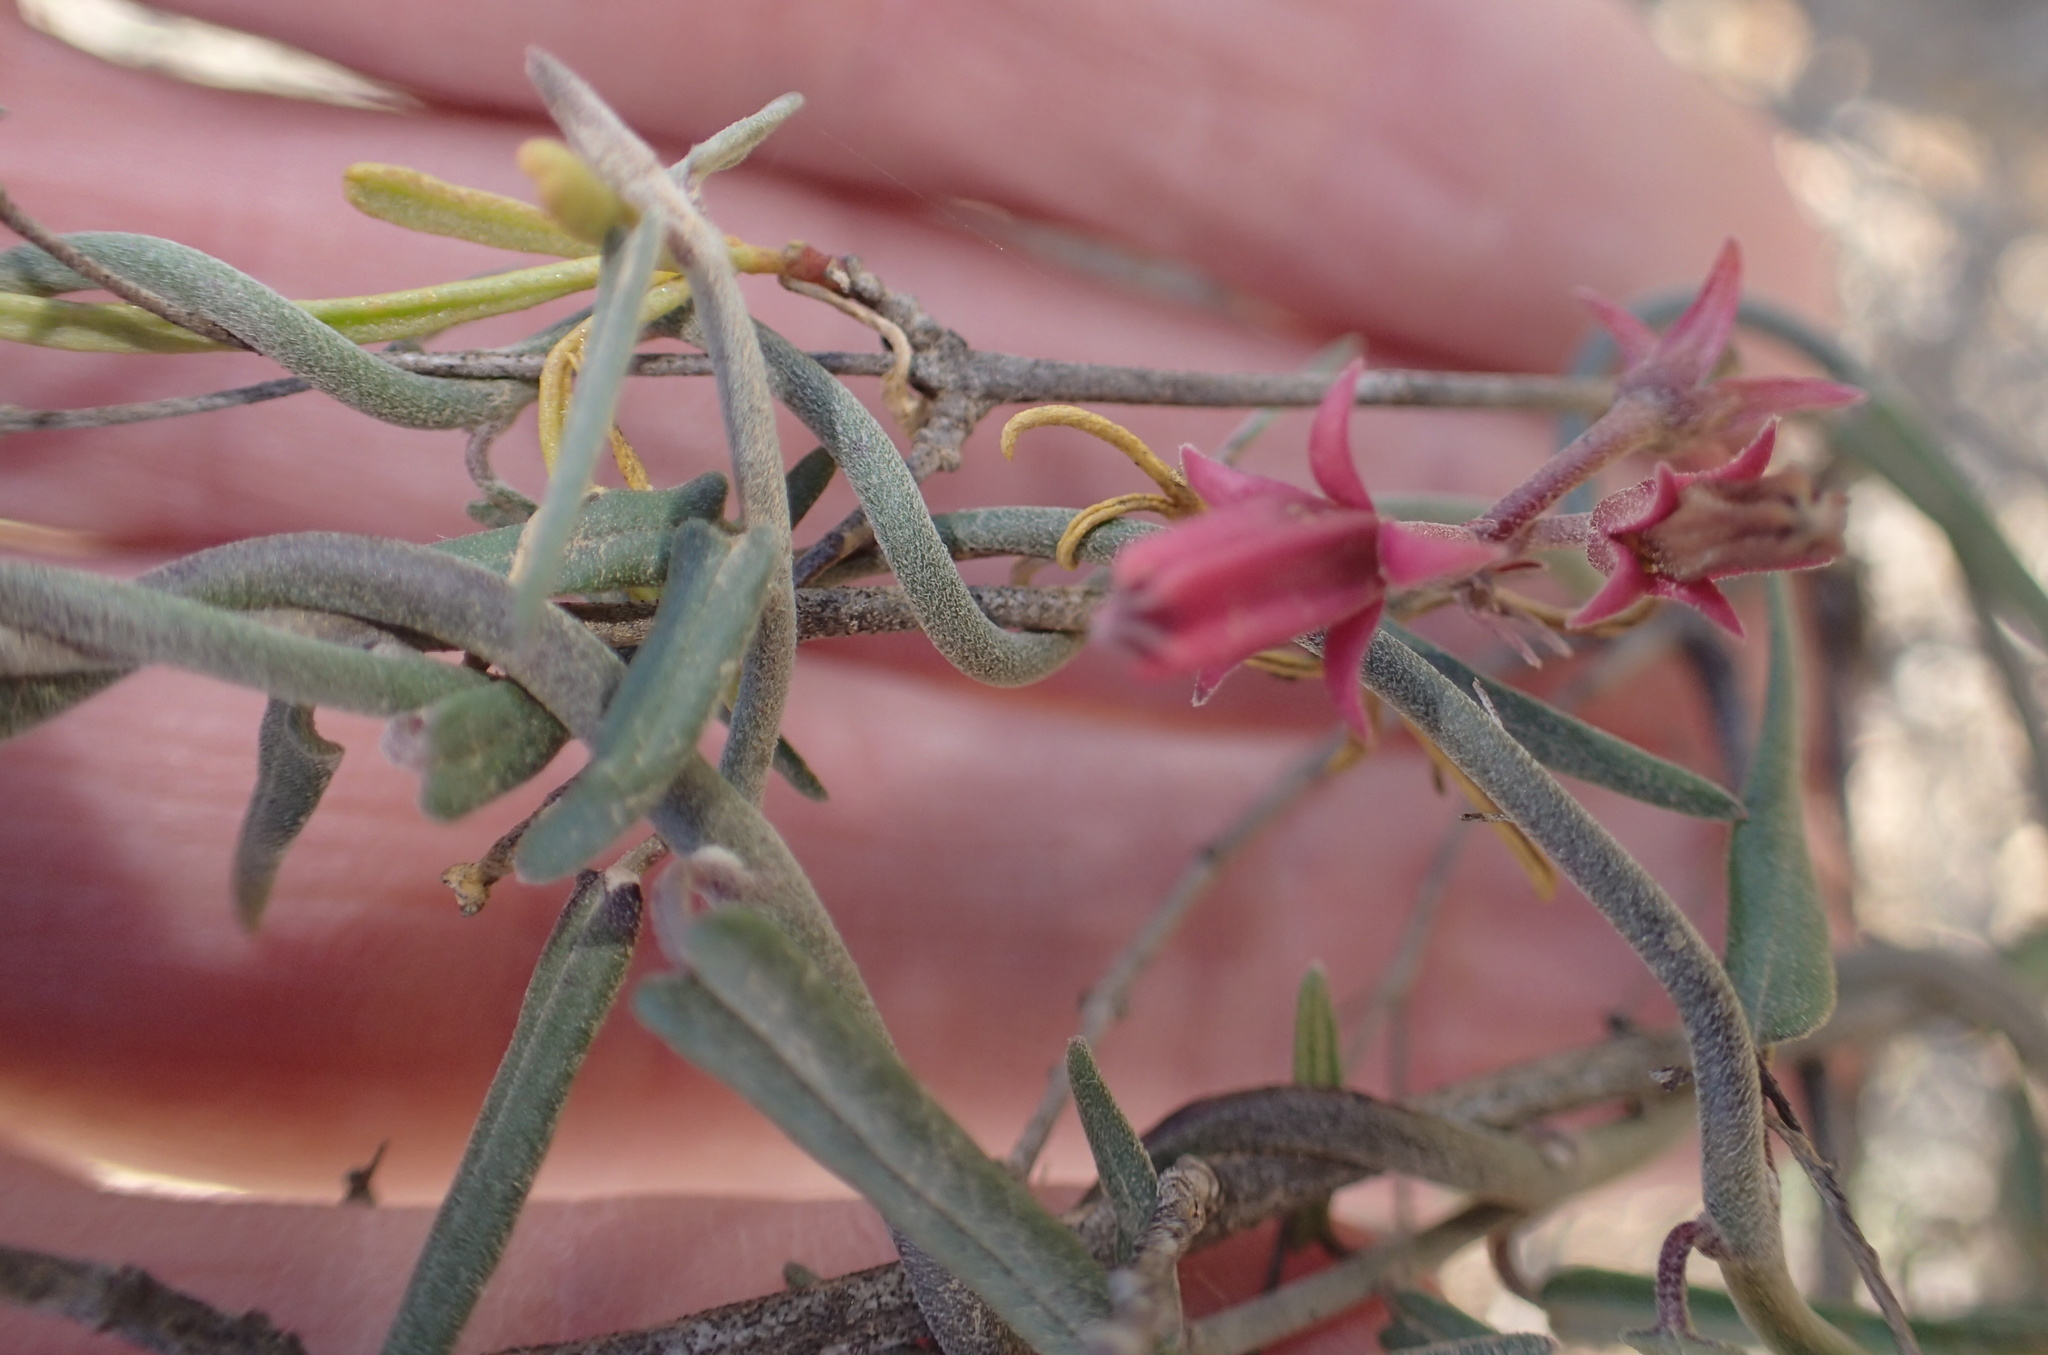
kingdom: Plantae
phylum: Tracheophyta
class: Magnoliopsida
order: Gentianales
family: Apocynaceae
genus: Microloma
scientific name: Microloma sagittatum
